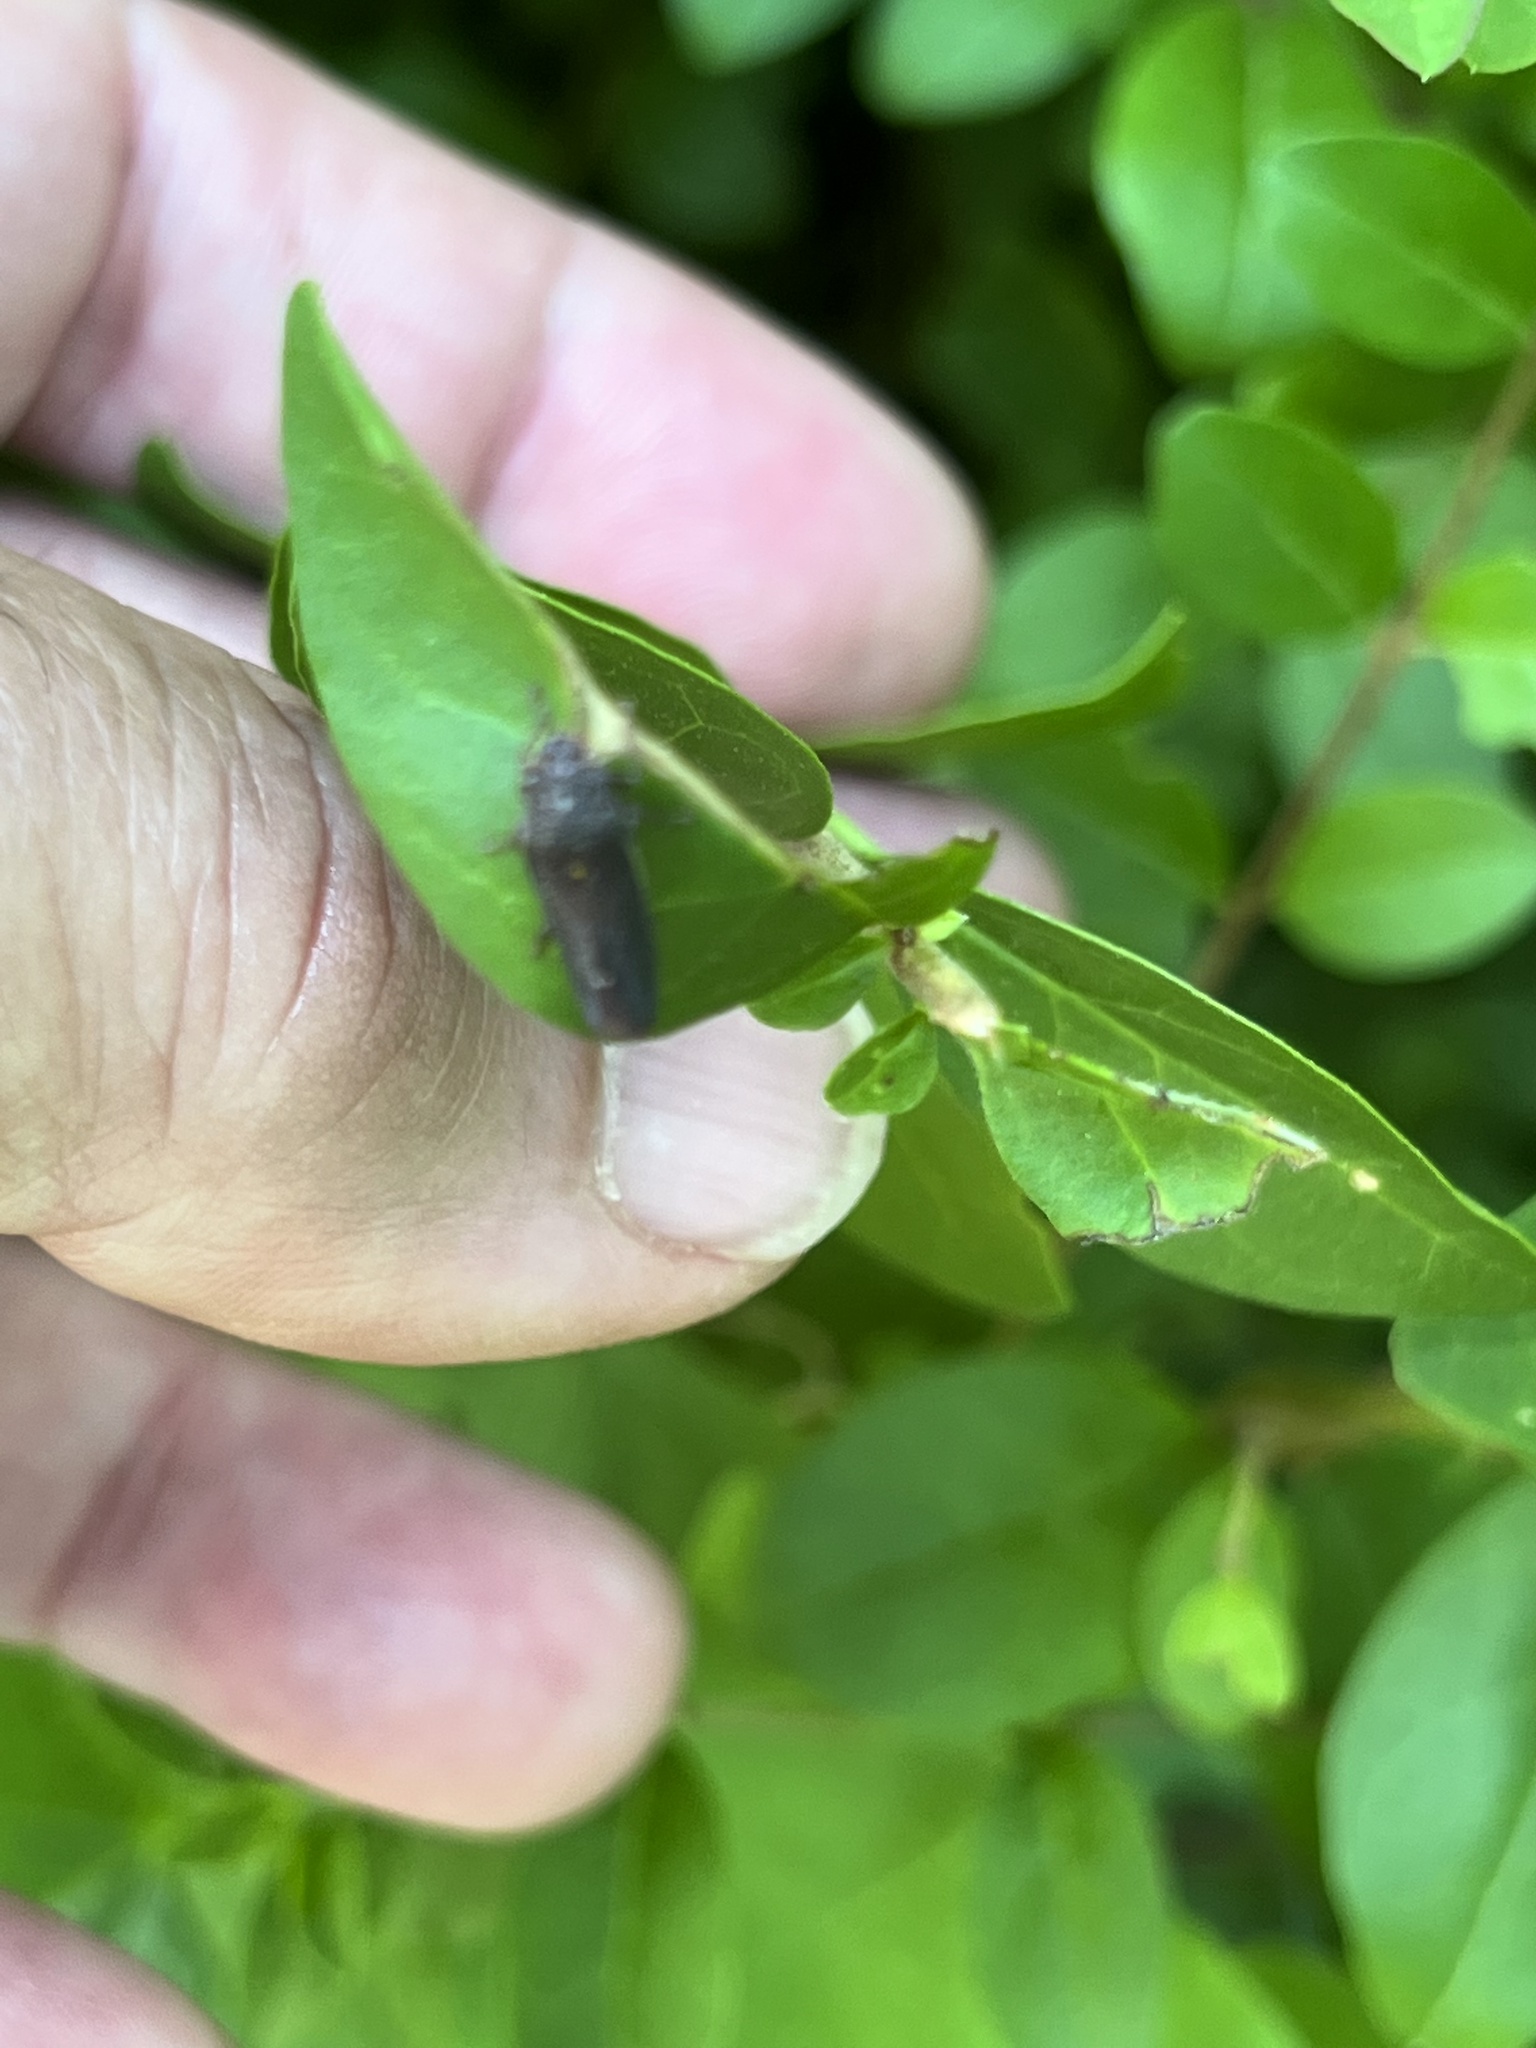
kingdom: Animalia
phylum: Arthropoda
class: Insecta
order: Hemiptera
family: Cicadellidae
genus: Paraulacizes
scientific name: Paraulacizes irrorata
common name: Speckled sharpshooter
